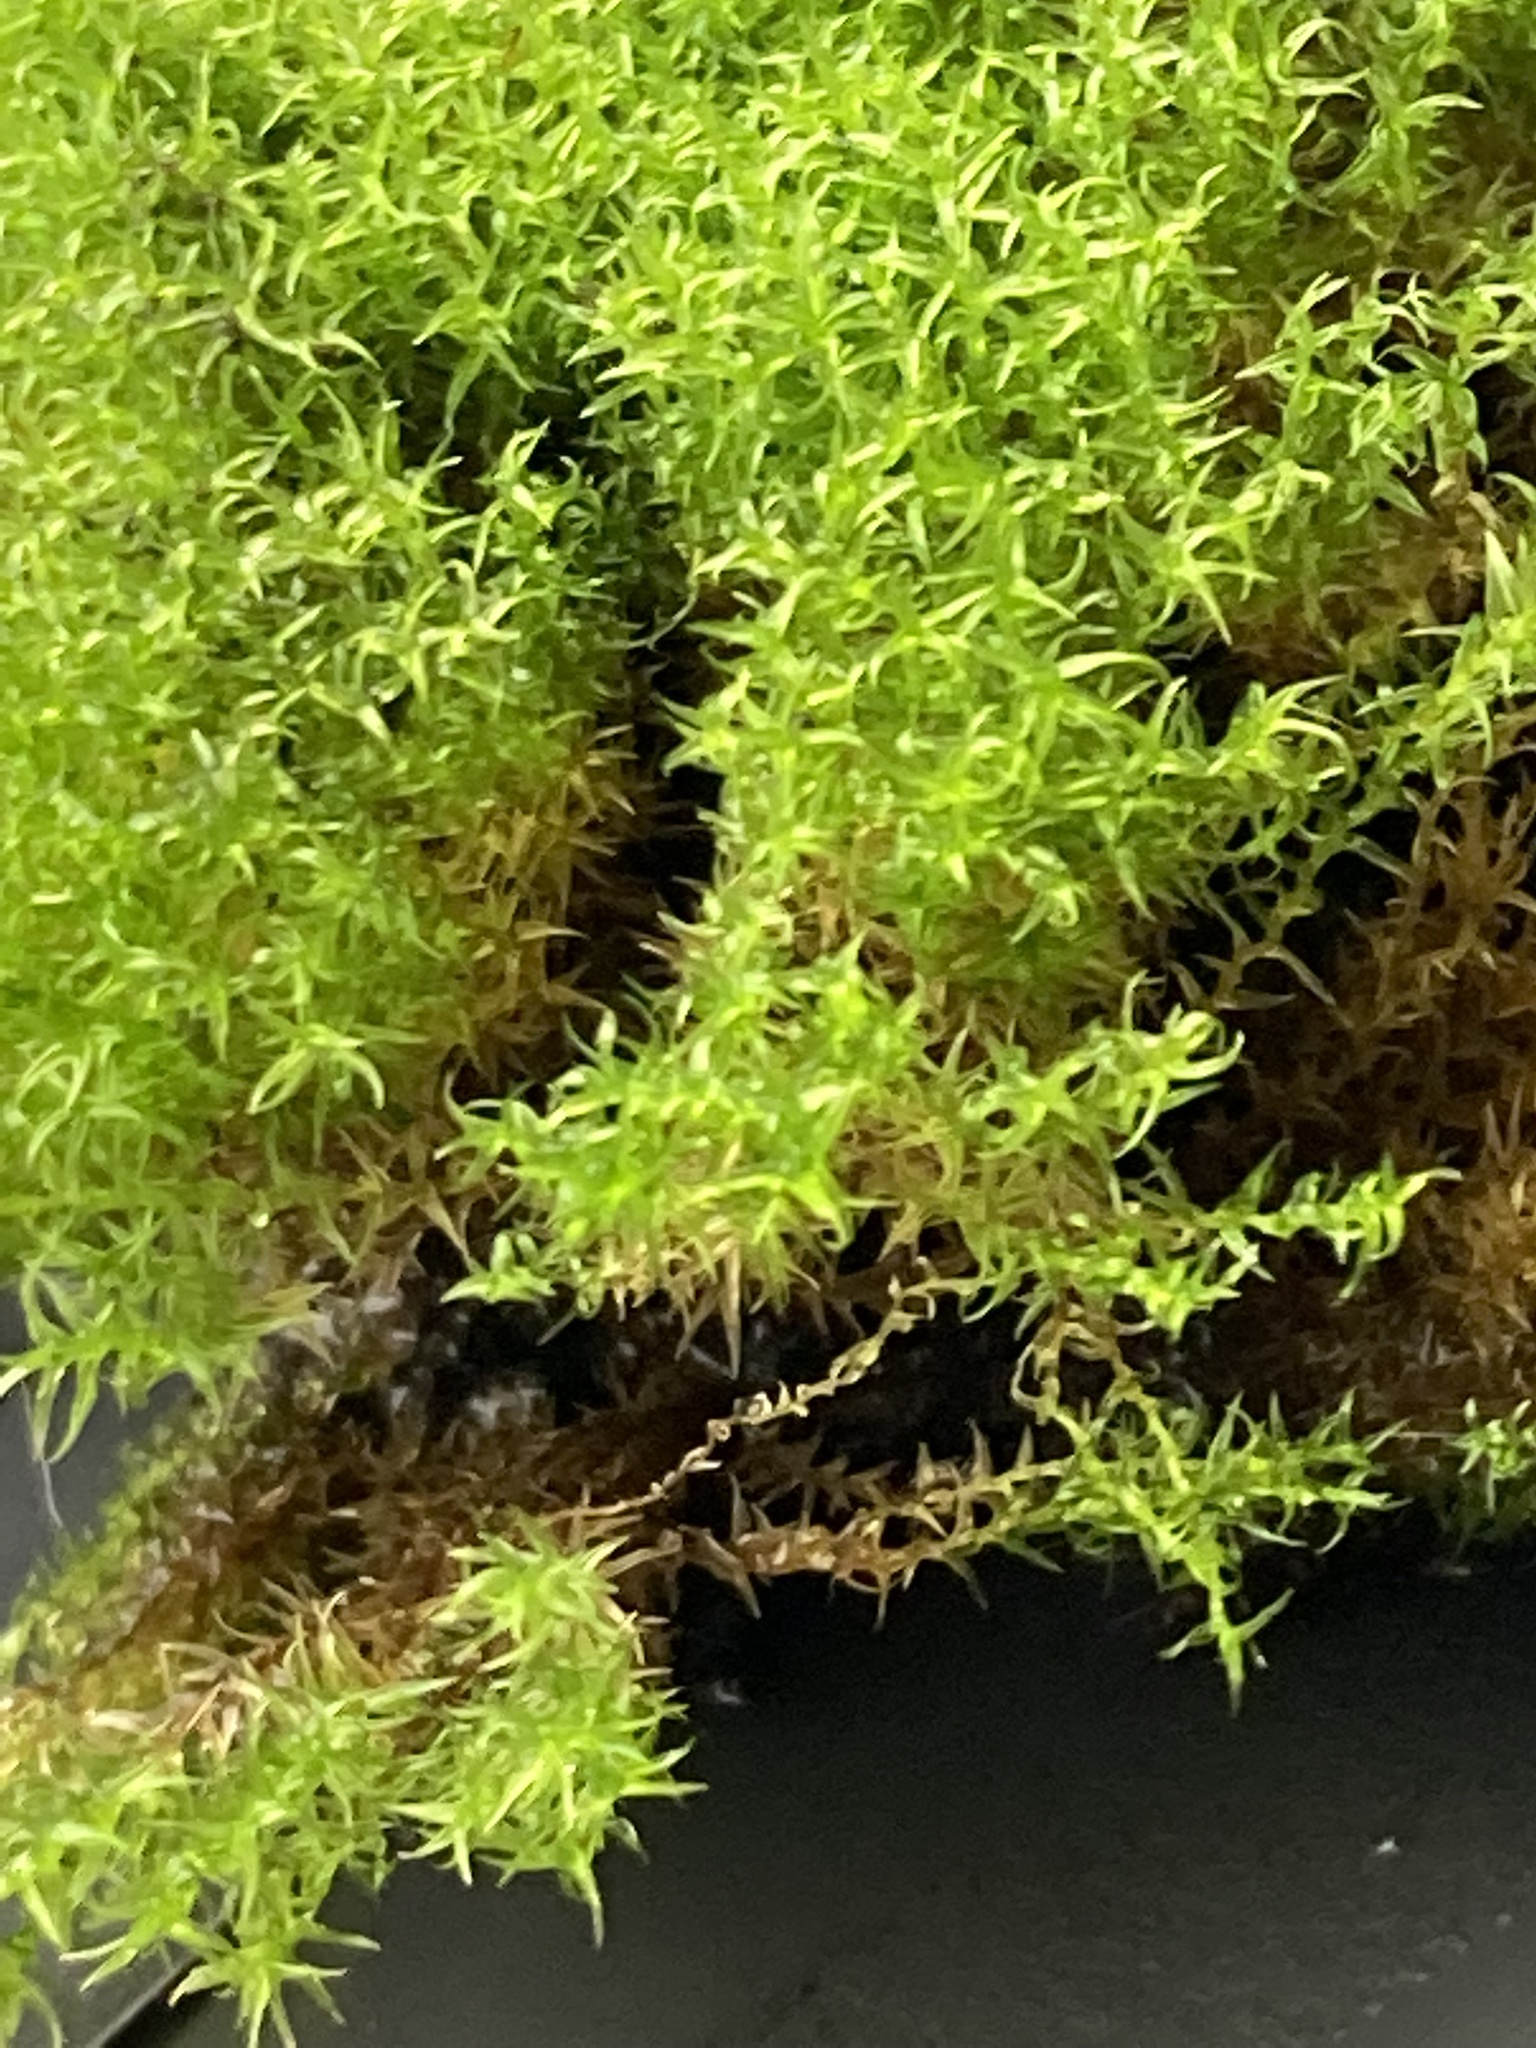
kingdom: Plantae
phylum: Bryophyta
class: Bryopsida
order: Dicranales
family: Ditrichaceae
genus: Ceratodon
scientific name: Ceratodon purpureus
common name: Redshank
